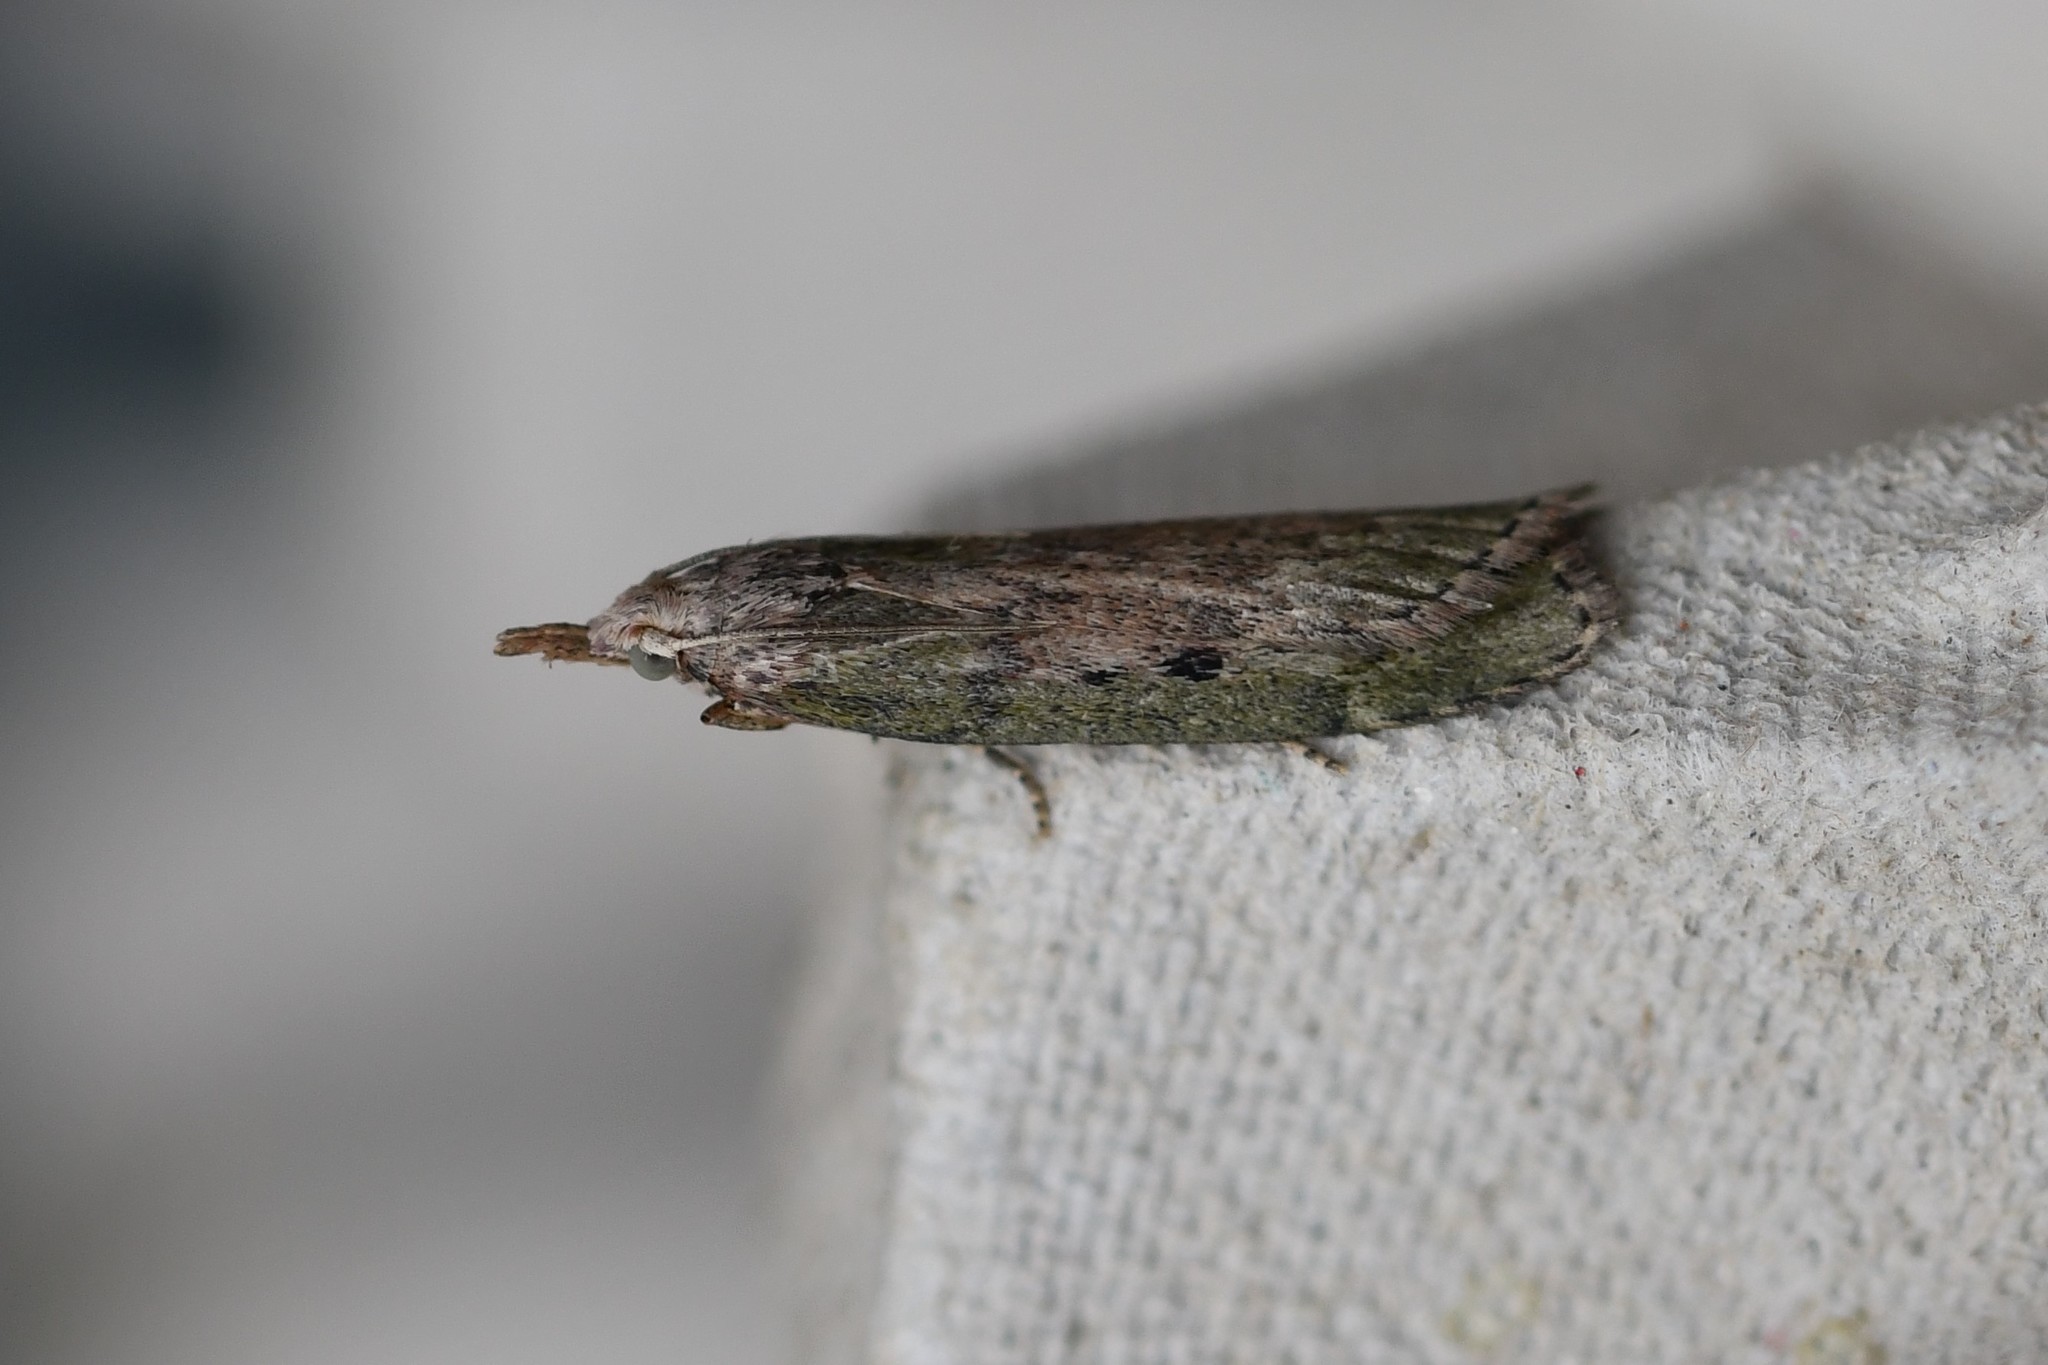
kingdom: Animalia
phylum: Arthropoda
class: Insecta
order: Lepidoptera
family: Pyralidae
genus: Aphomia
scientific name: Aphomia sociella
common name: Bee moth
